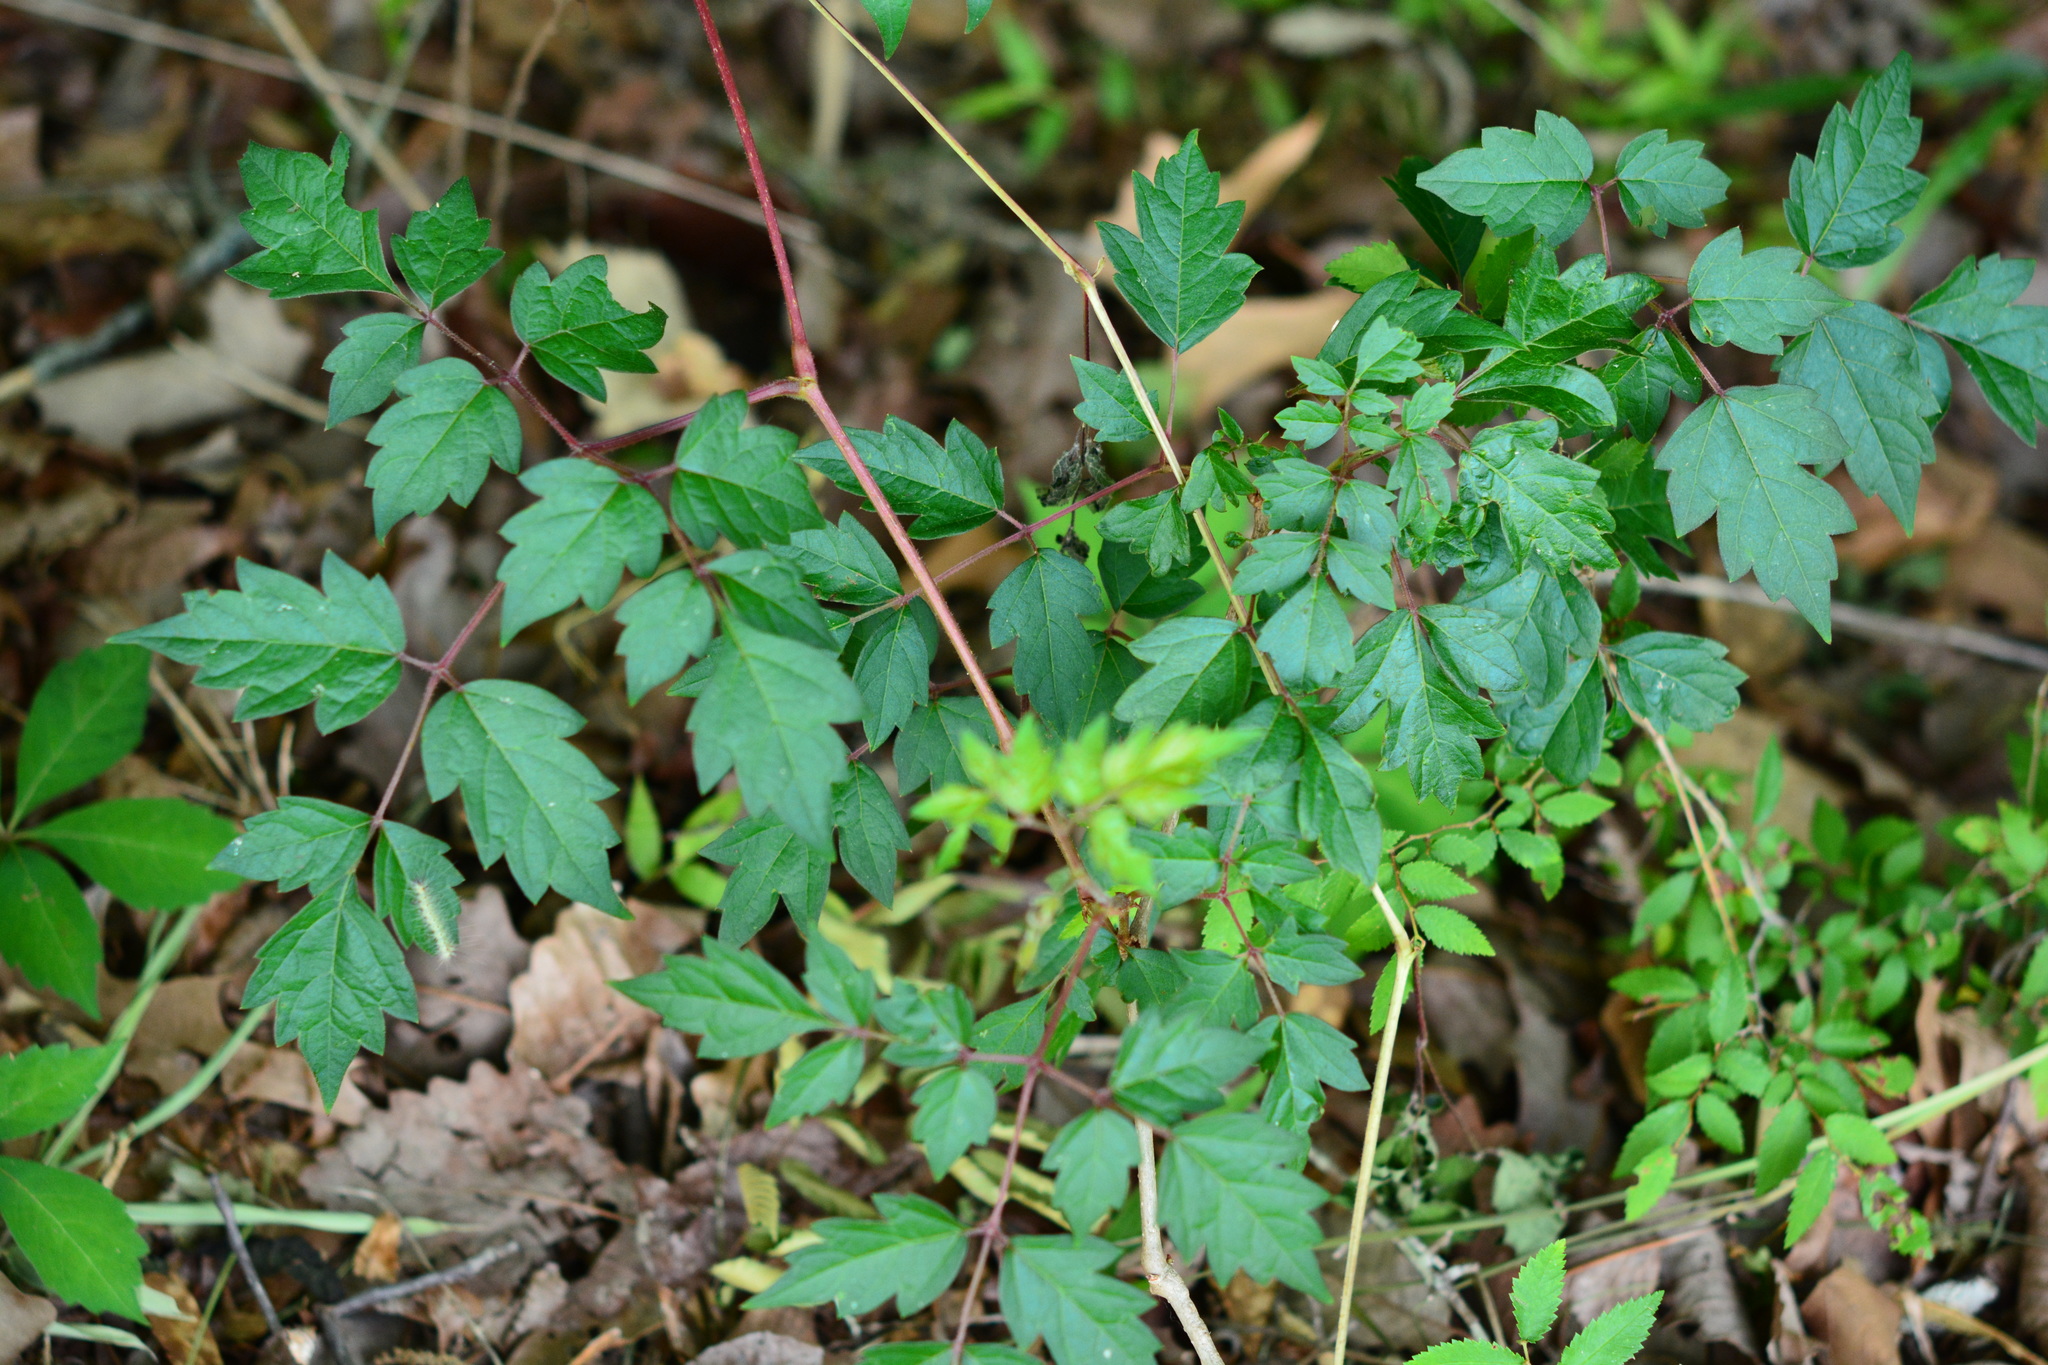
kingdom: Plantae
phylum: Tracheophyta
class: Magnoliopsida
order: Vitales
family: Vitaceae
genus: Nekemias
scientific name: Nekemias arborea
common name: Peppervine
